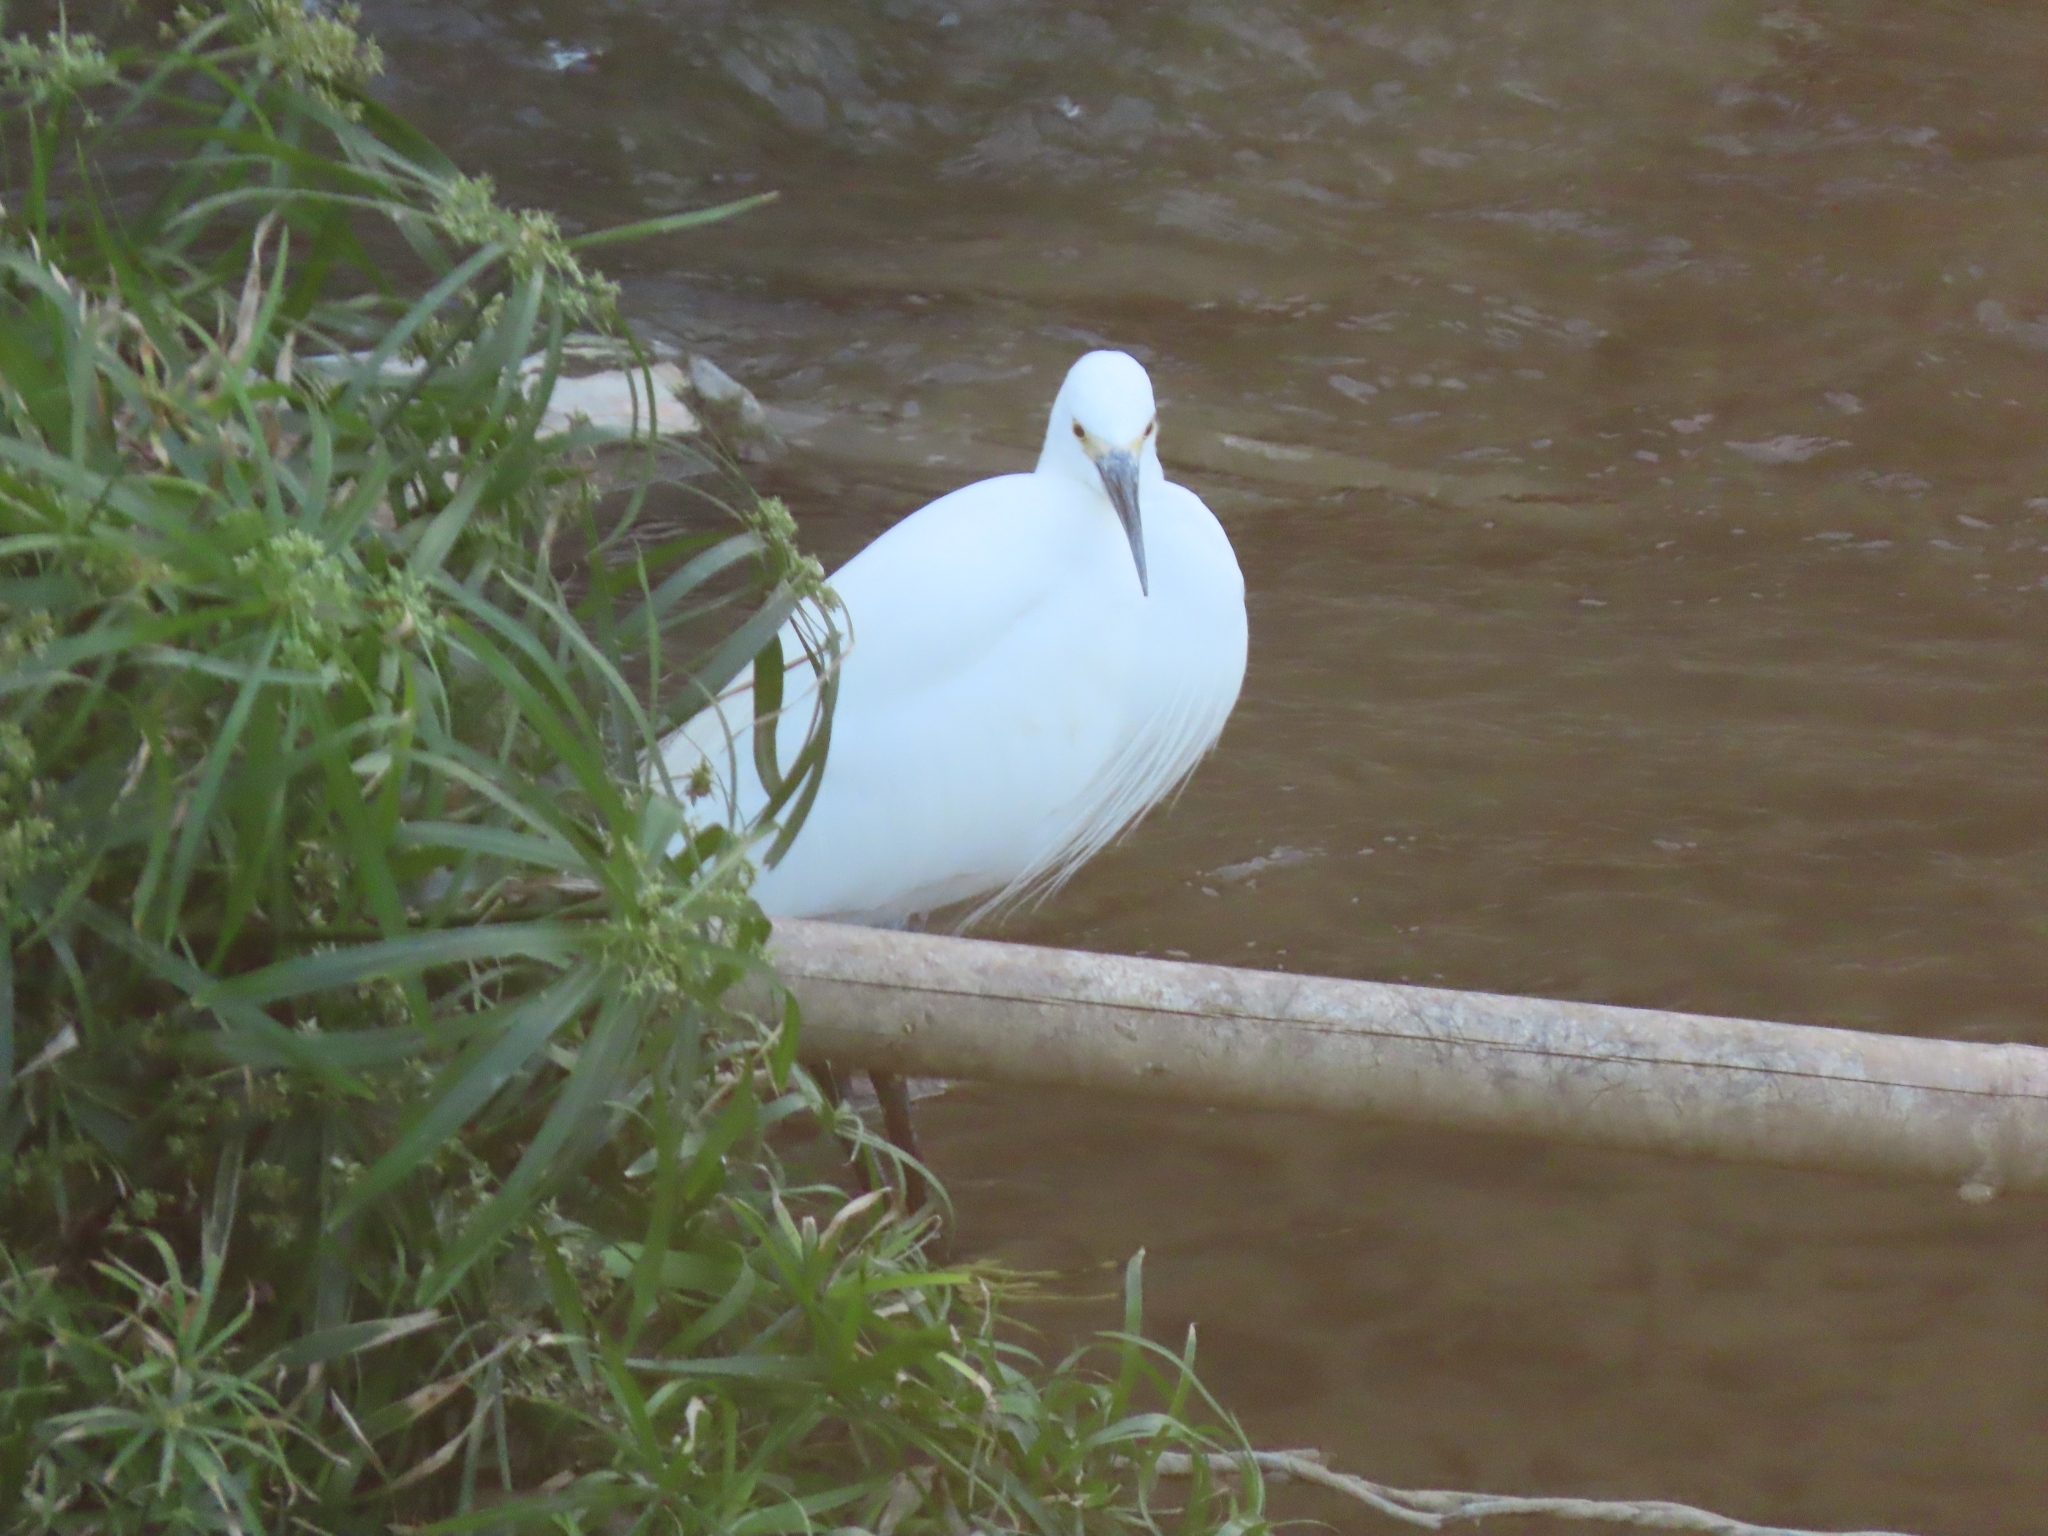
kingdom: Animalia
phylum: Chordata
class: Aves
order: Pelecaniformes
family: Ardeidae
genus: Egretta
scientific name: Egretta garzetta
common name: Little egret
